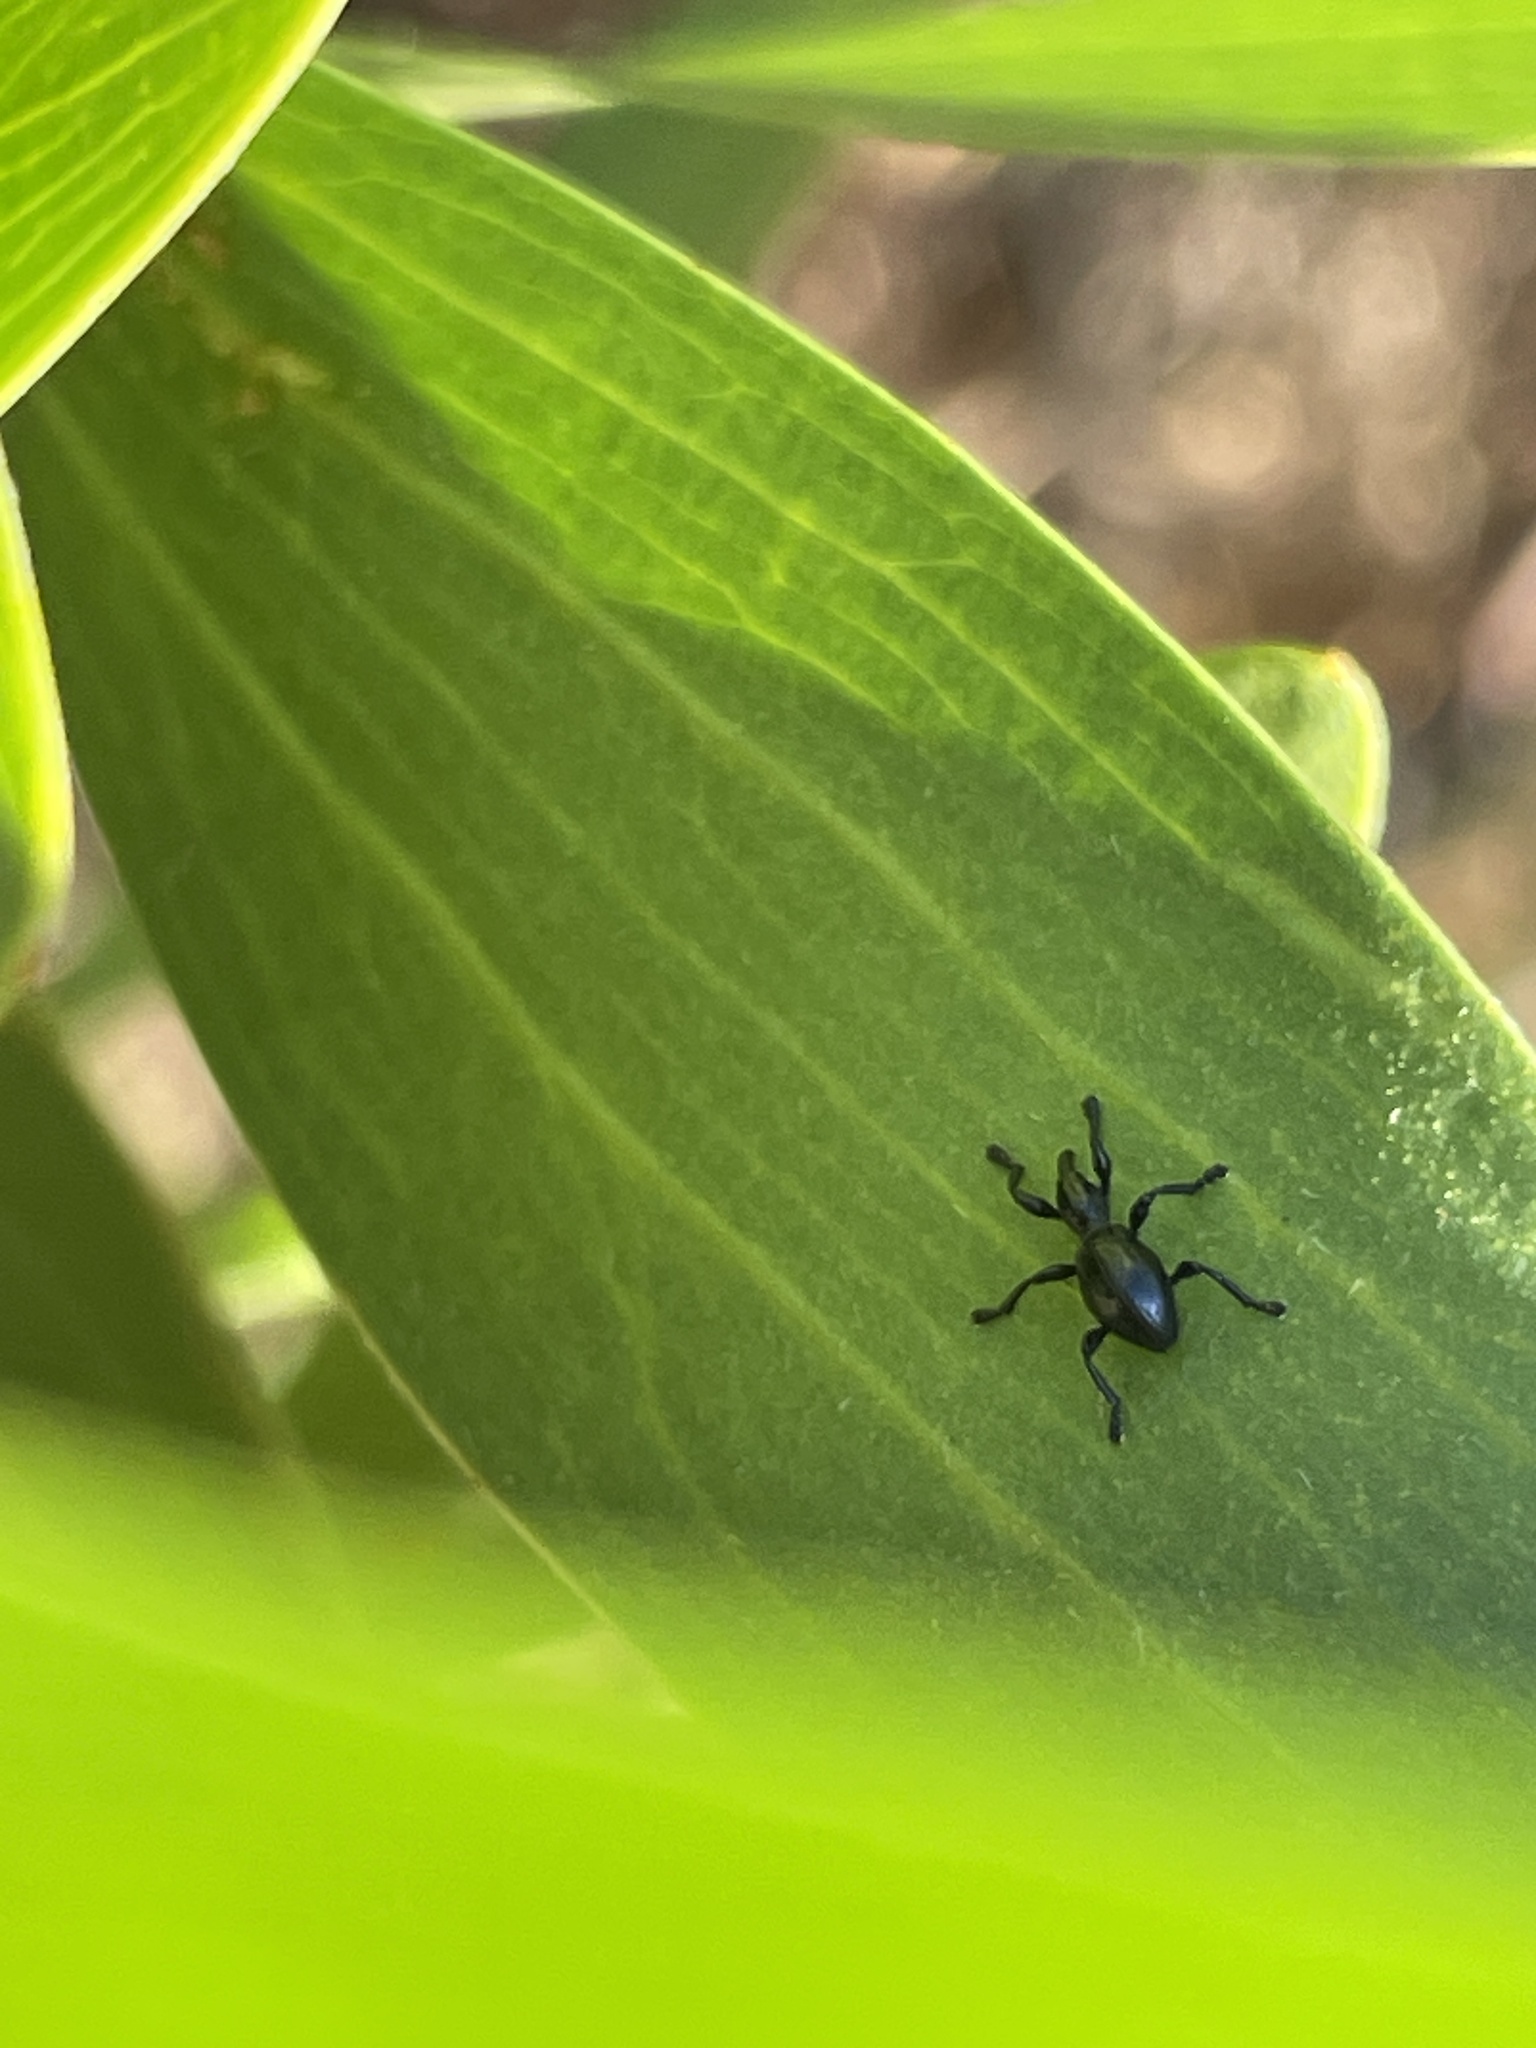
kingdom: Animalia
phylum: Arthropoda
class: Insecta
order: Coleoptera
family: Brentidae
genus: Rhynolaccus
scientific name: Rhynolaccus formicarius
